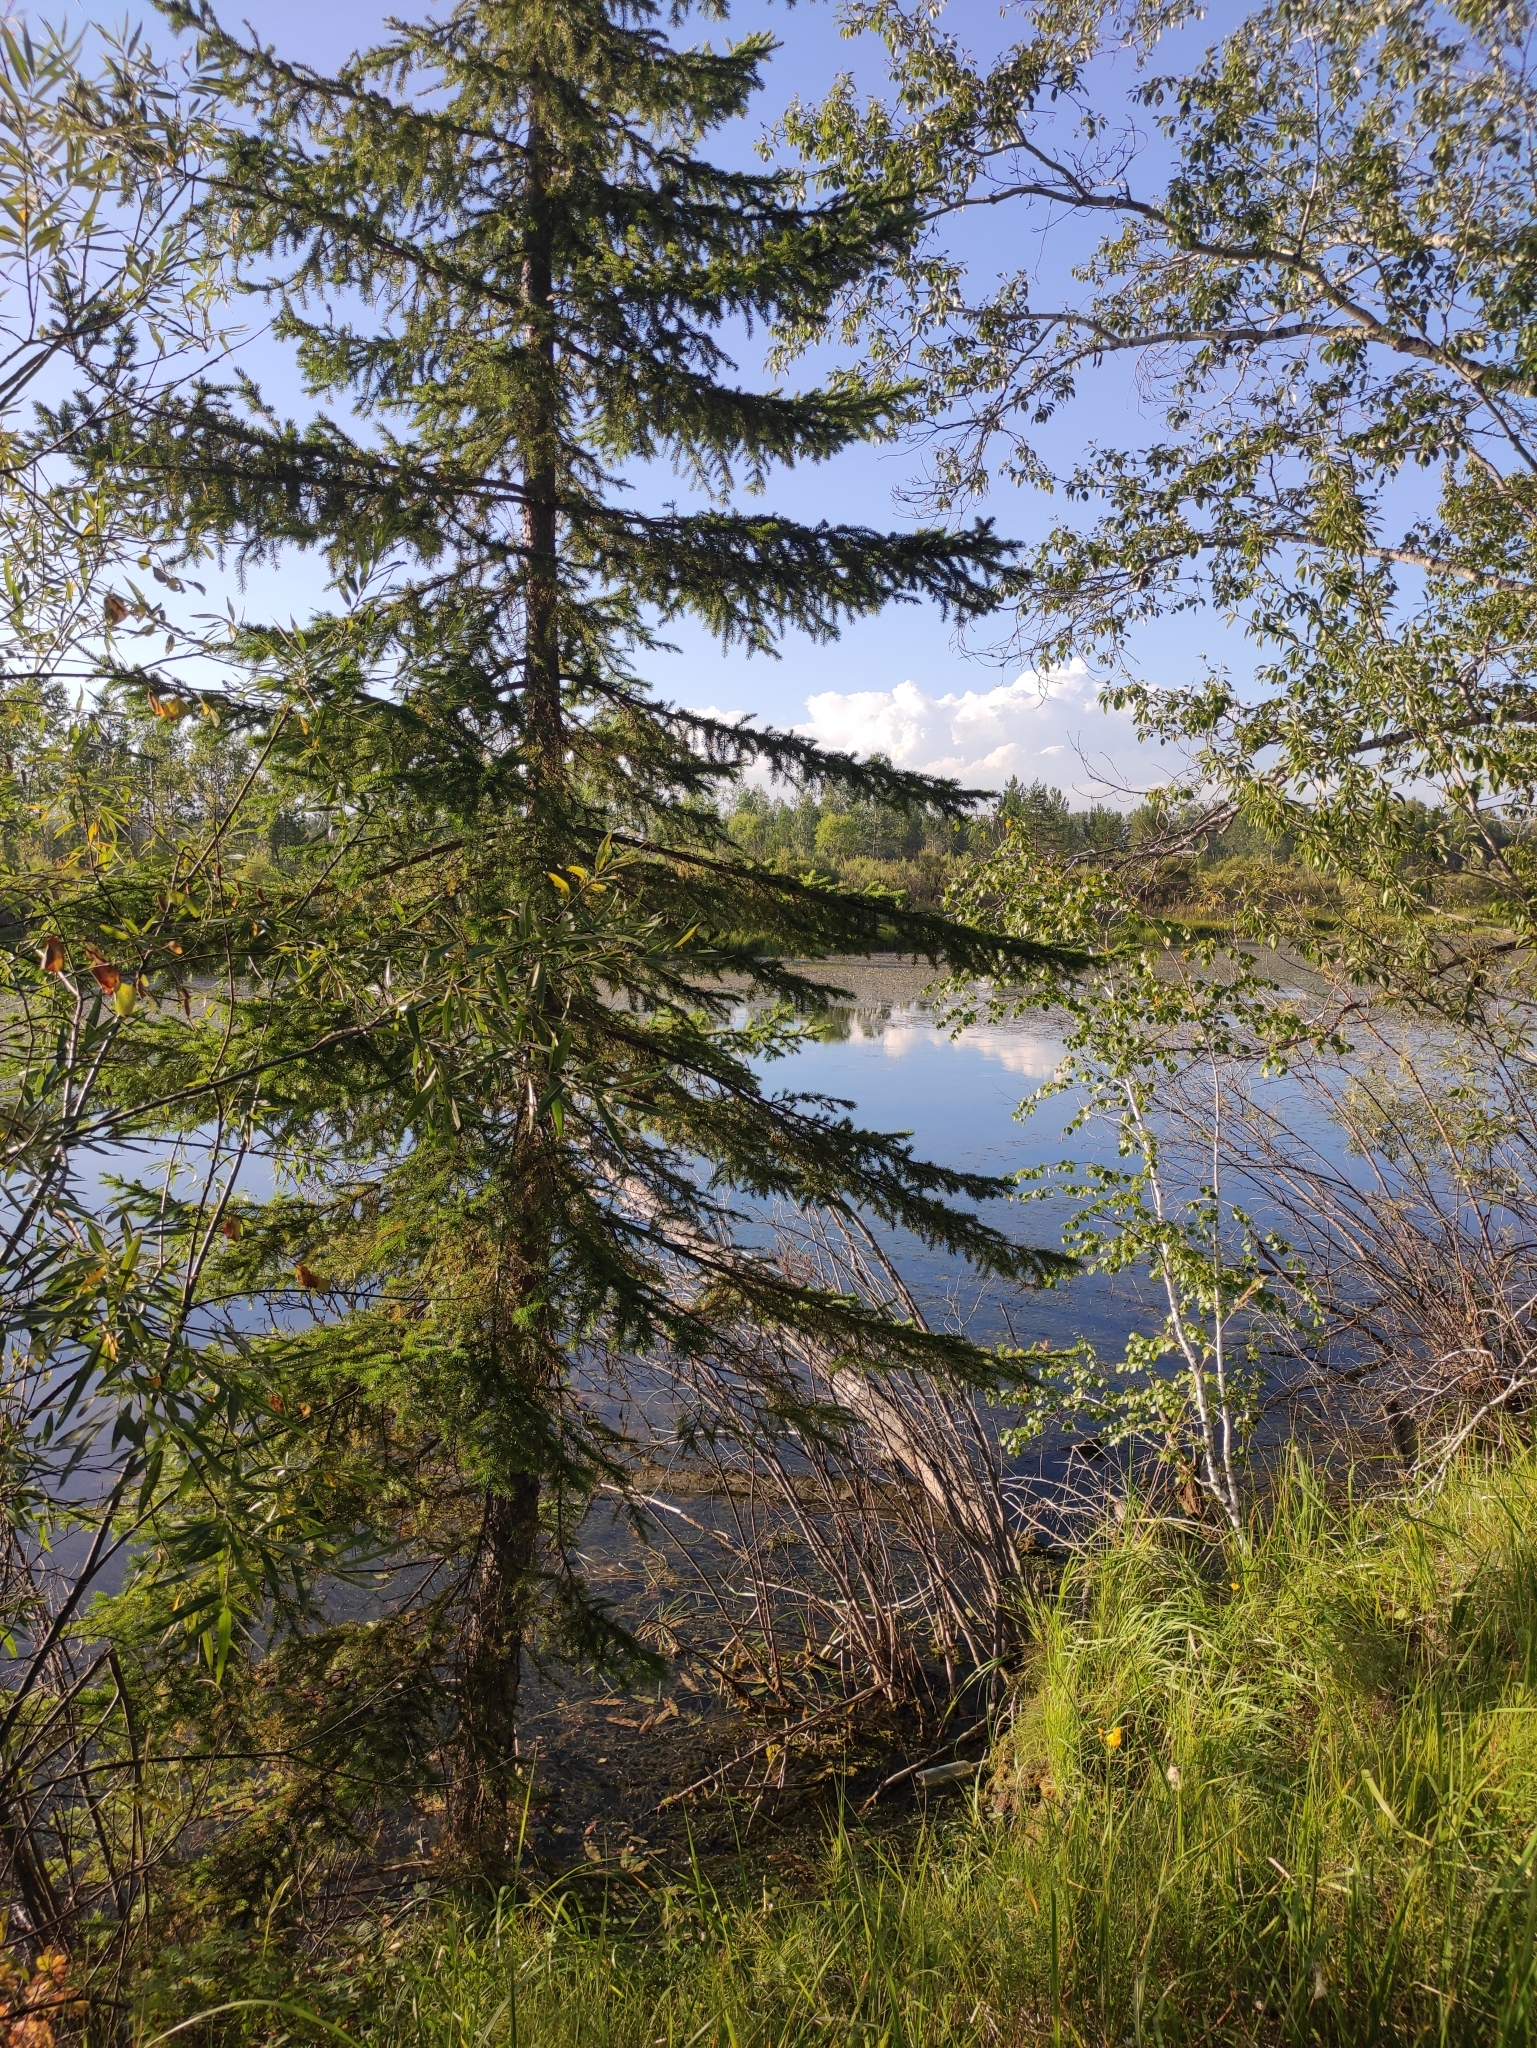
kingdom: Plantae
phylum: Tracheophyta
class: Pinopsida
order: Pinales
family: Pinaceae
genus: Picea
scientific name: Picea obovata
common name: Siberian spruce
